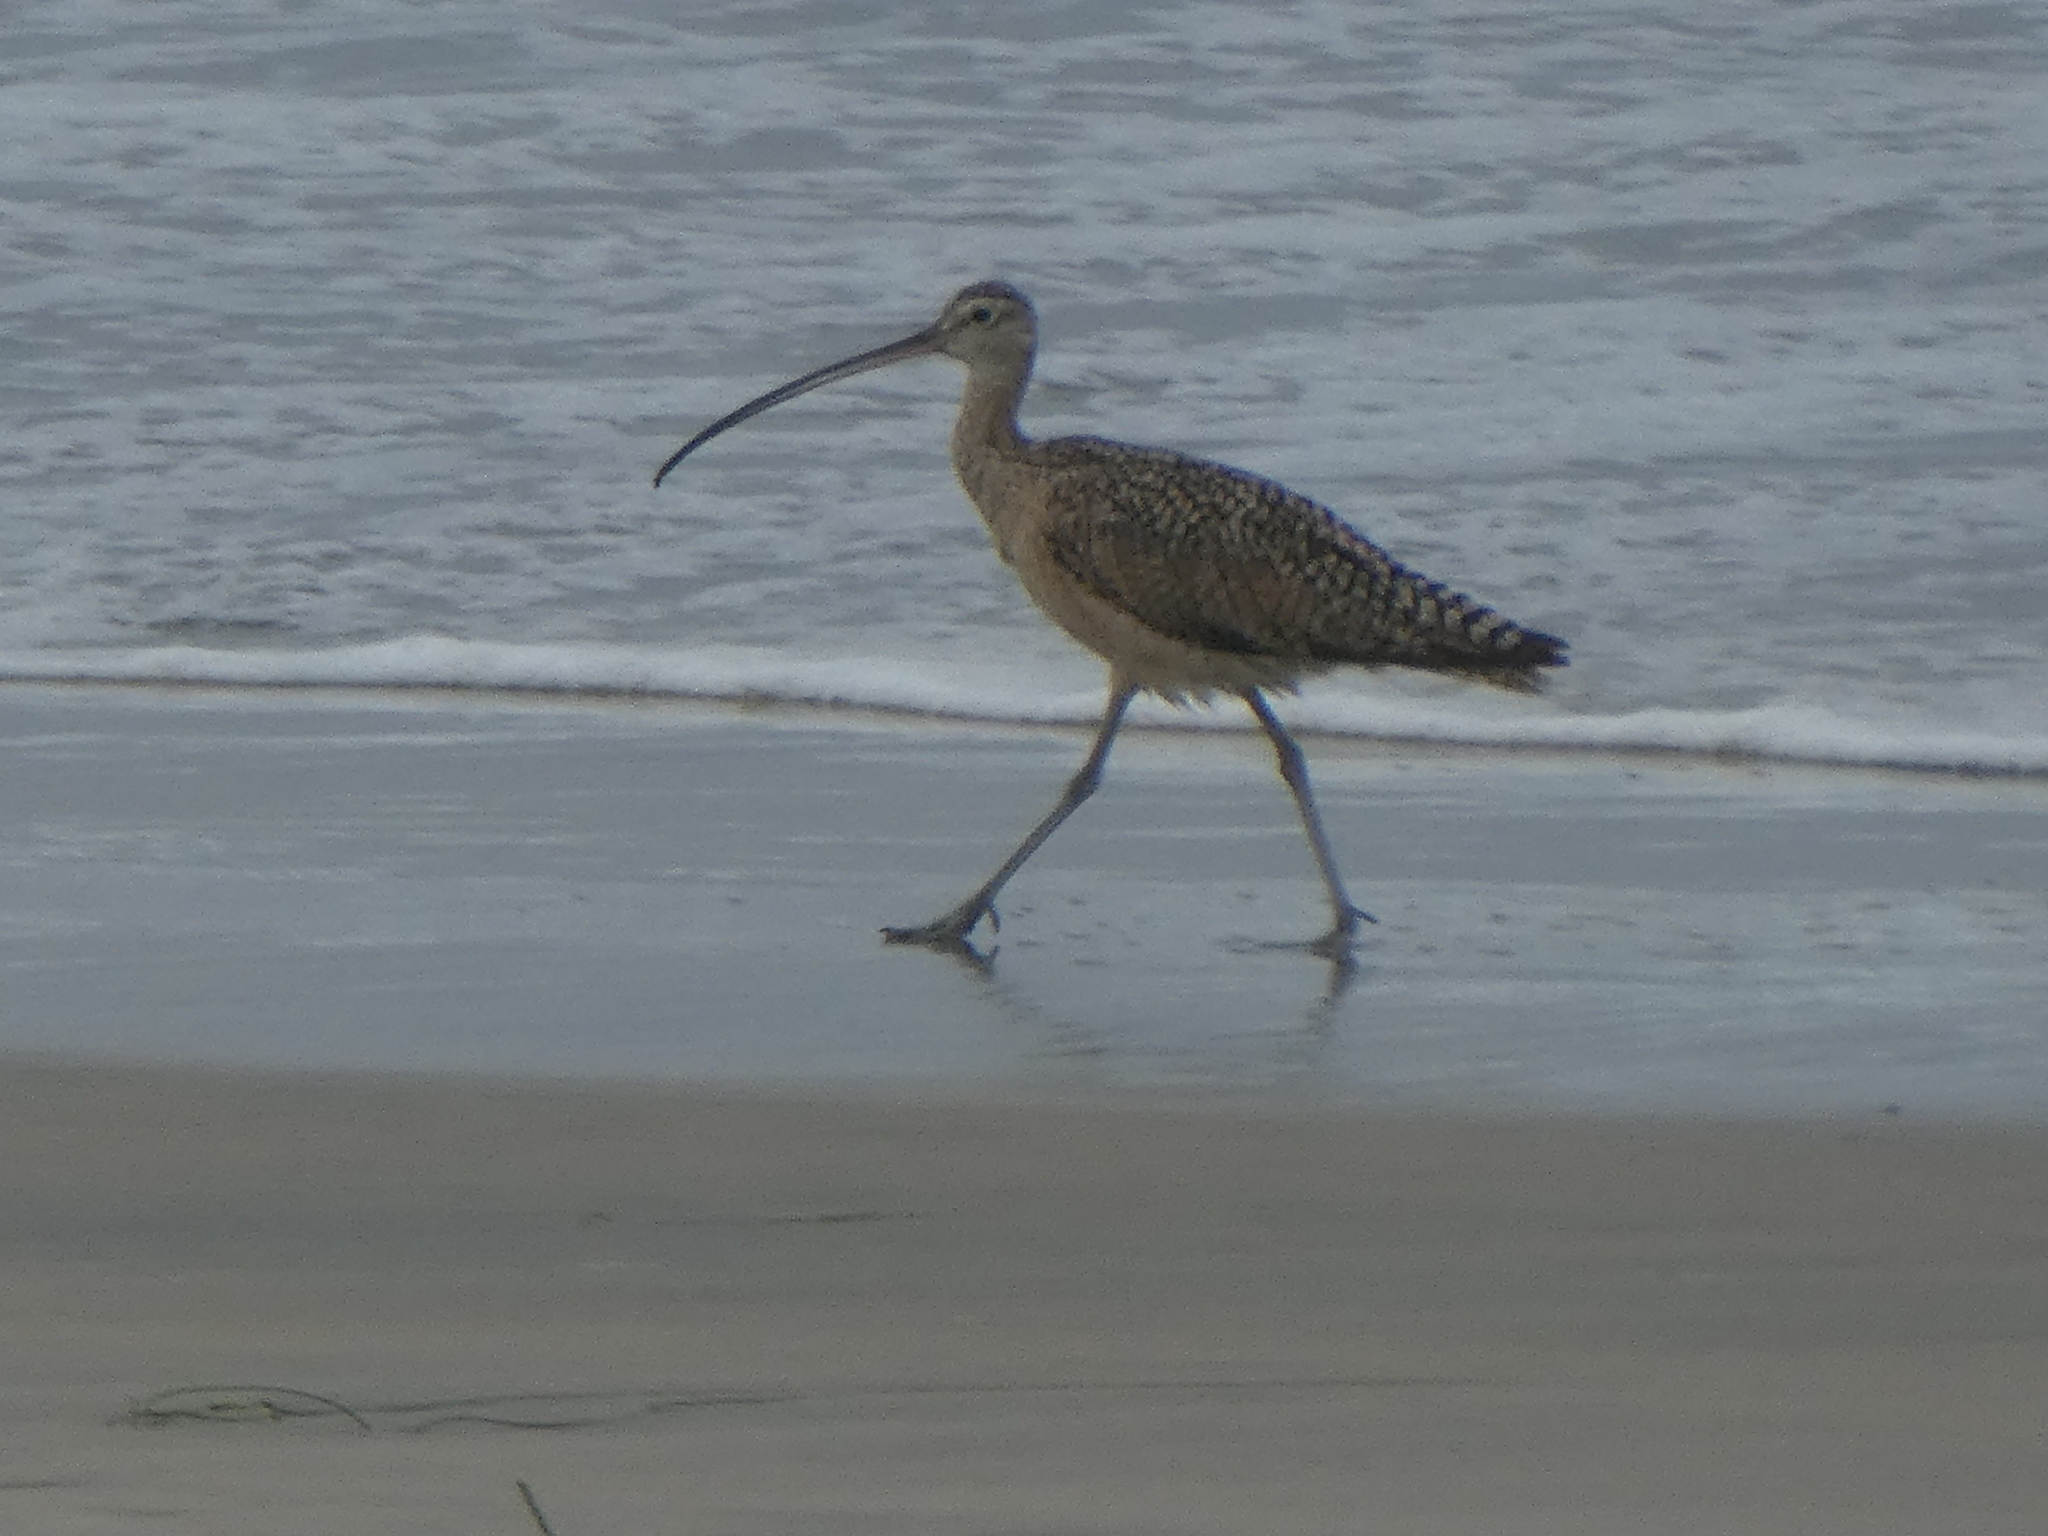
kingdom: Animalia
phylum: Chordata
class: Aves
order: Charadriiformes
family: Scolopacidae
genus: Numenius
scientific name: Numenius americanus
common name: Long-billed curlew
